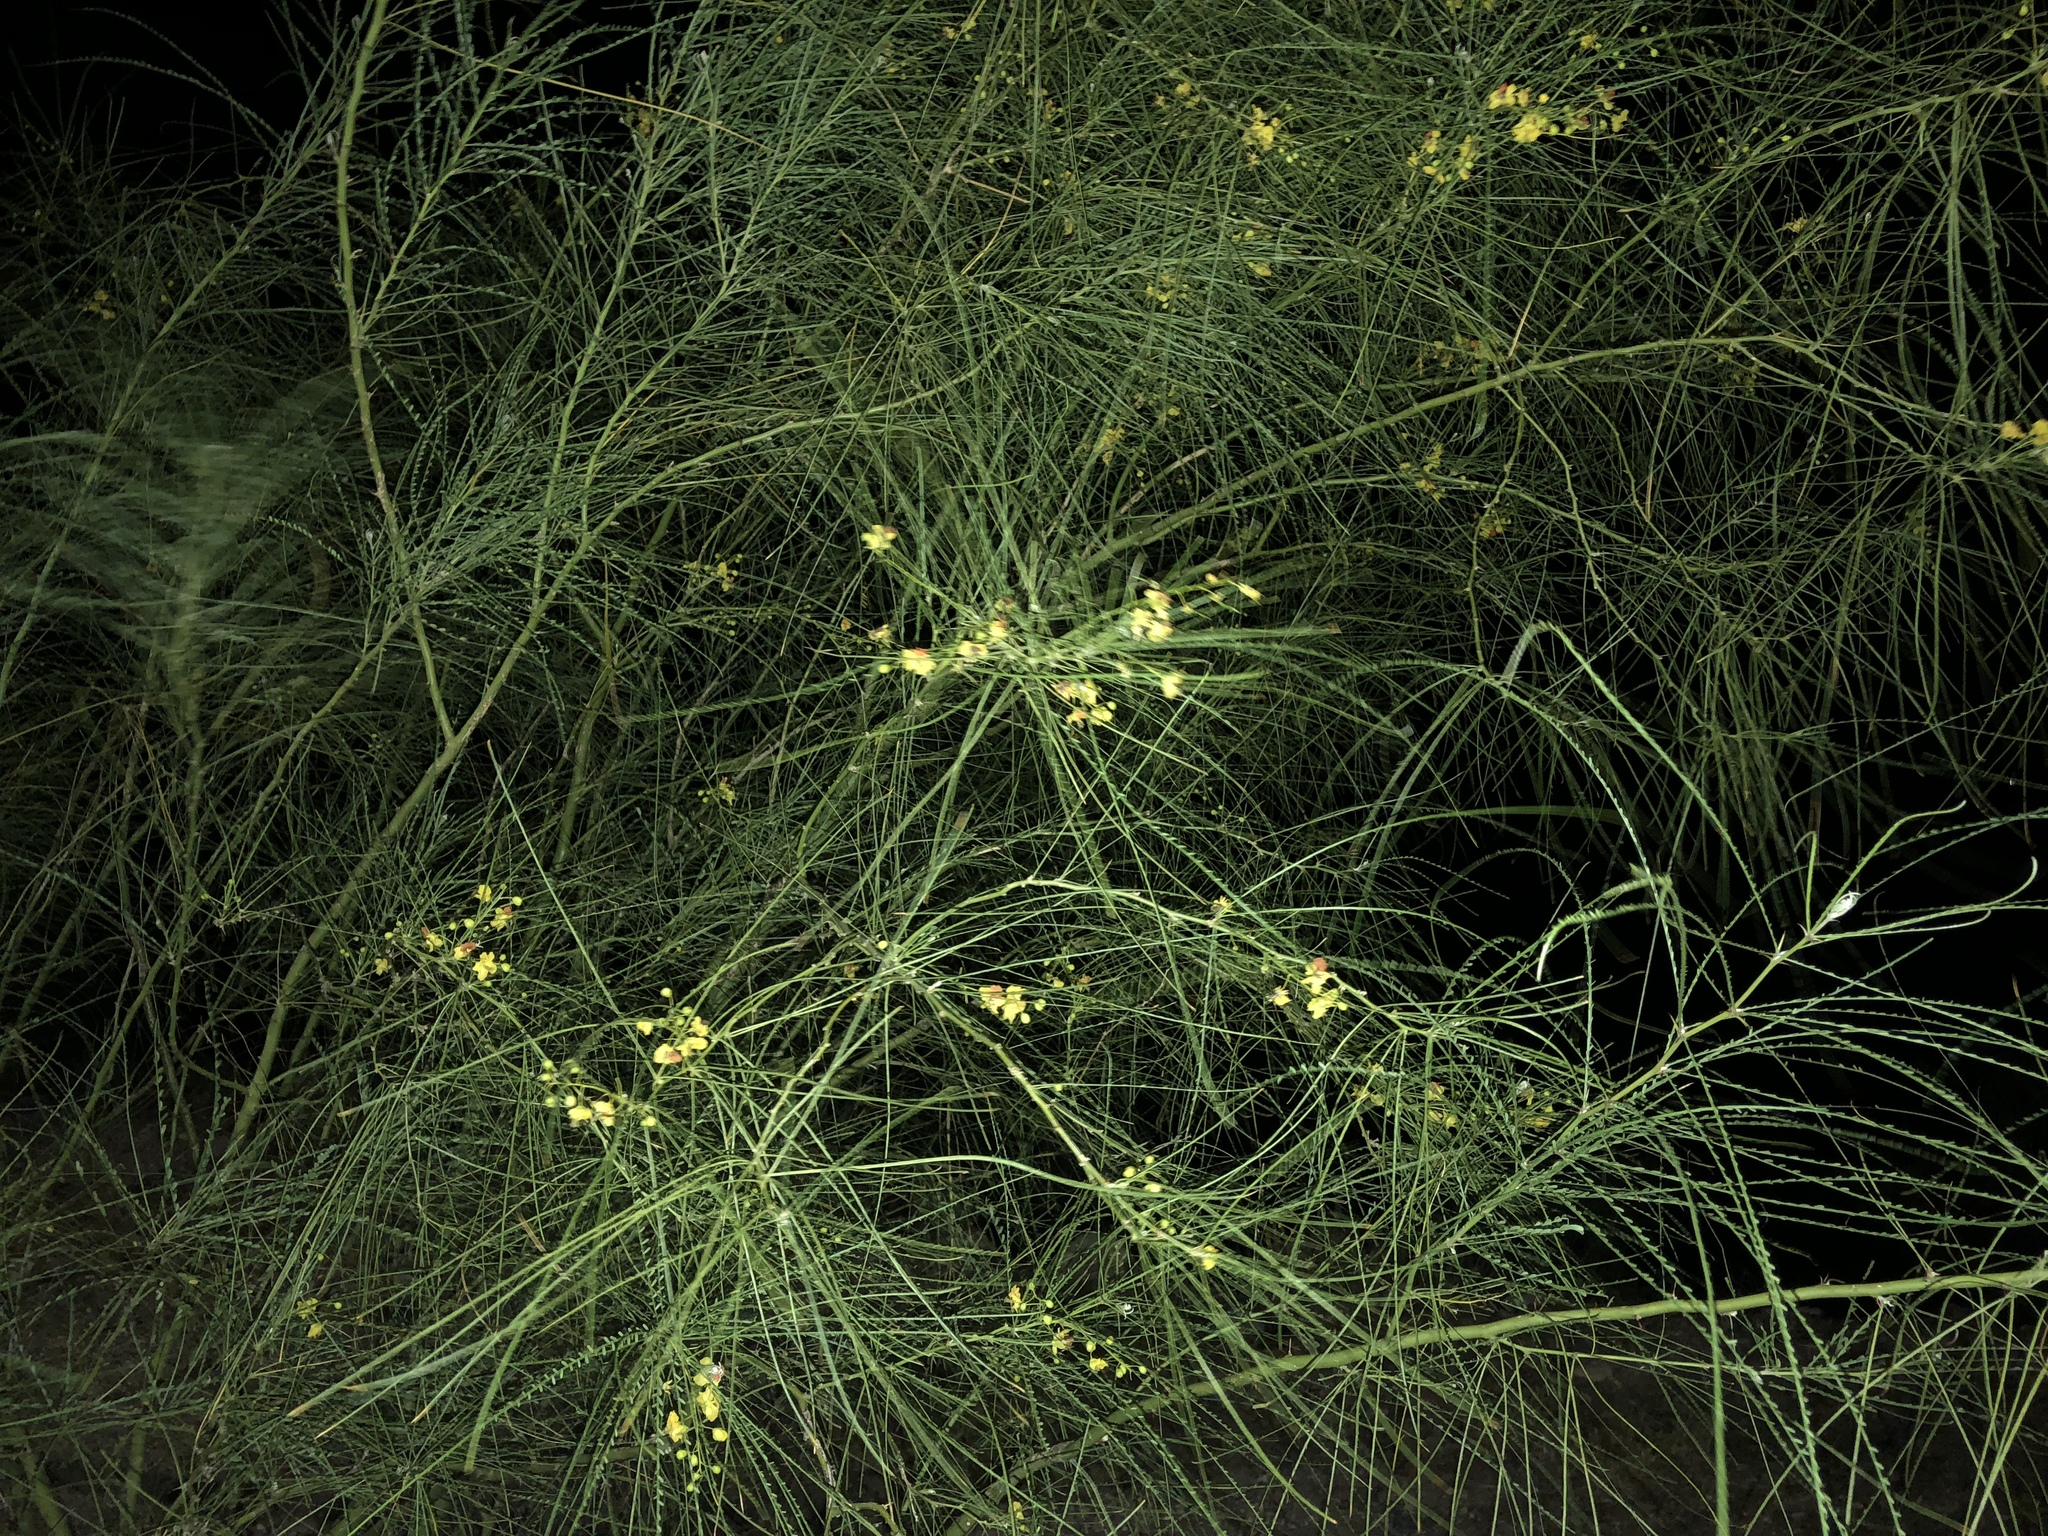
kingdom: Plantae
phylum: Tracheophyta
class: Magnoliopsida
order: Fabales
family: Fabaceae
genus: Parkinsonia
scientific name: Parkinsonia aculeata
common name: Jerusalem thorn
